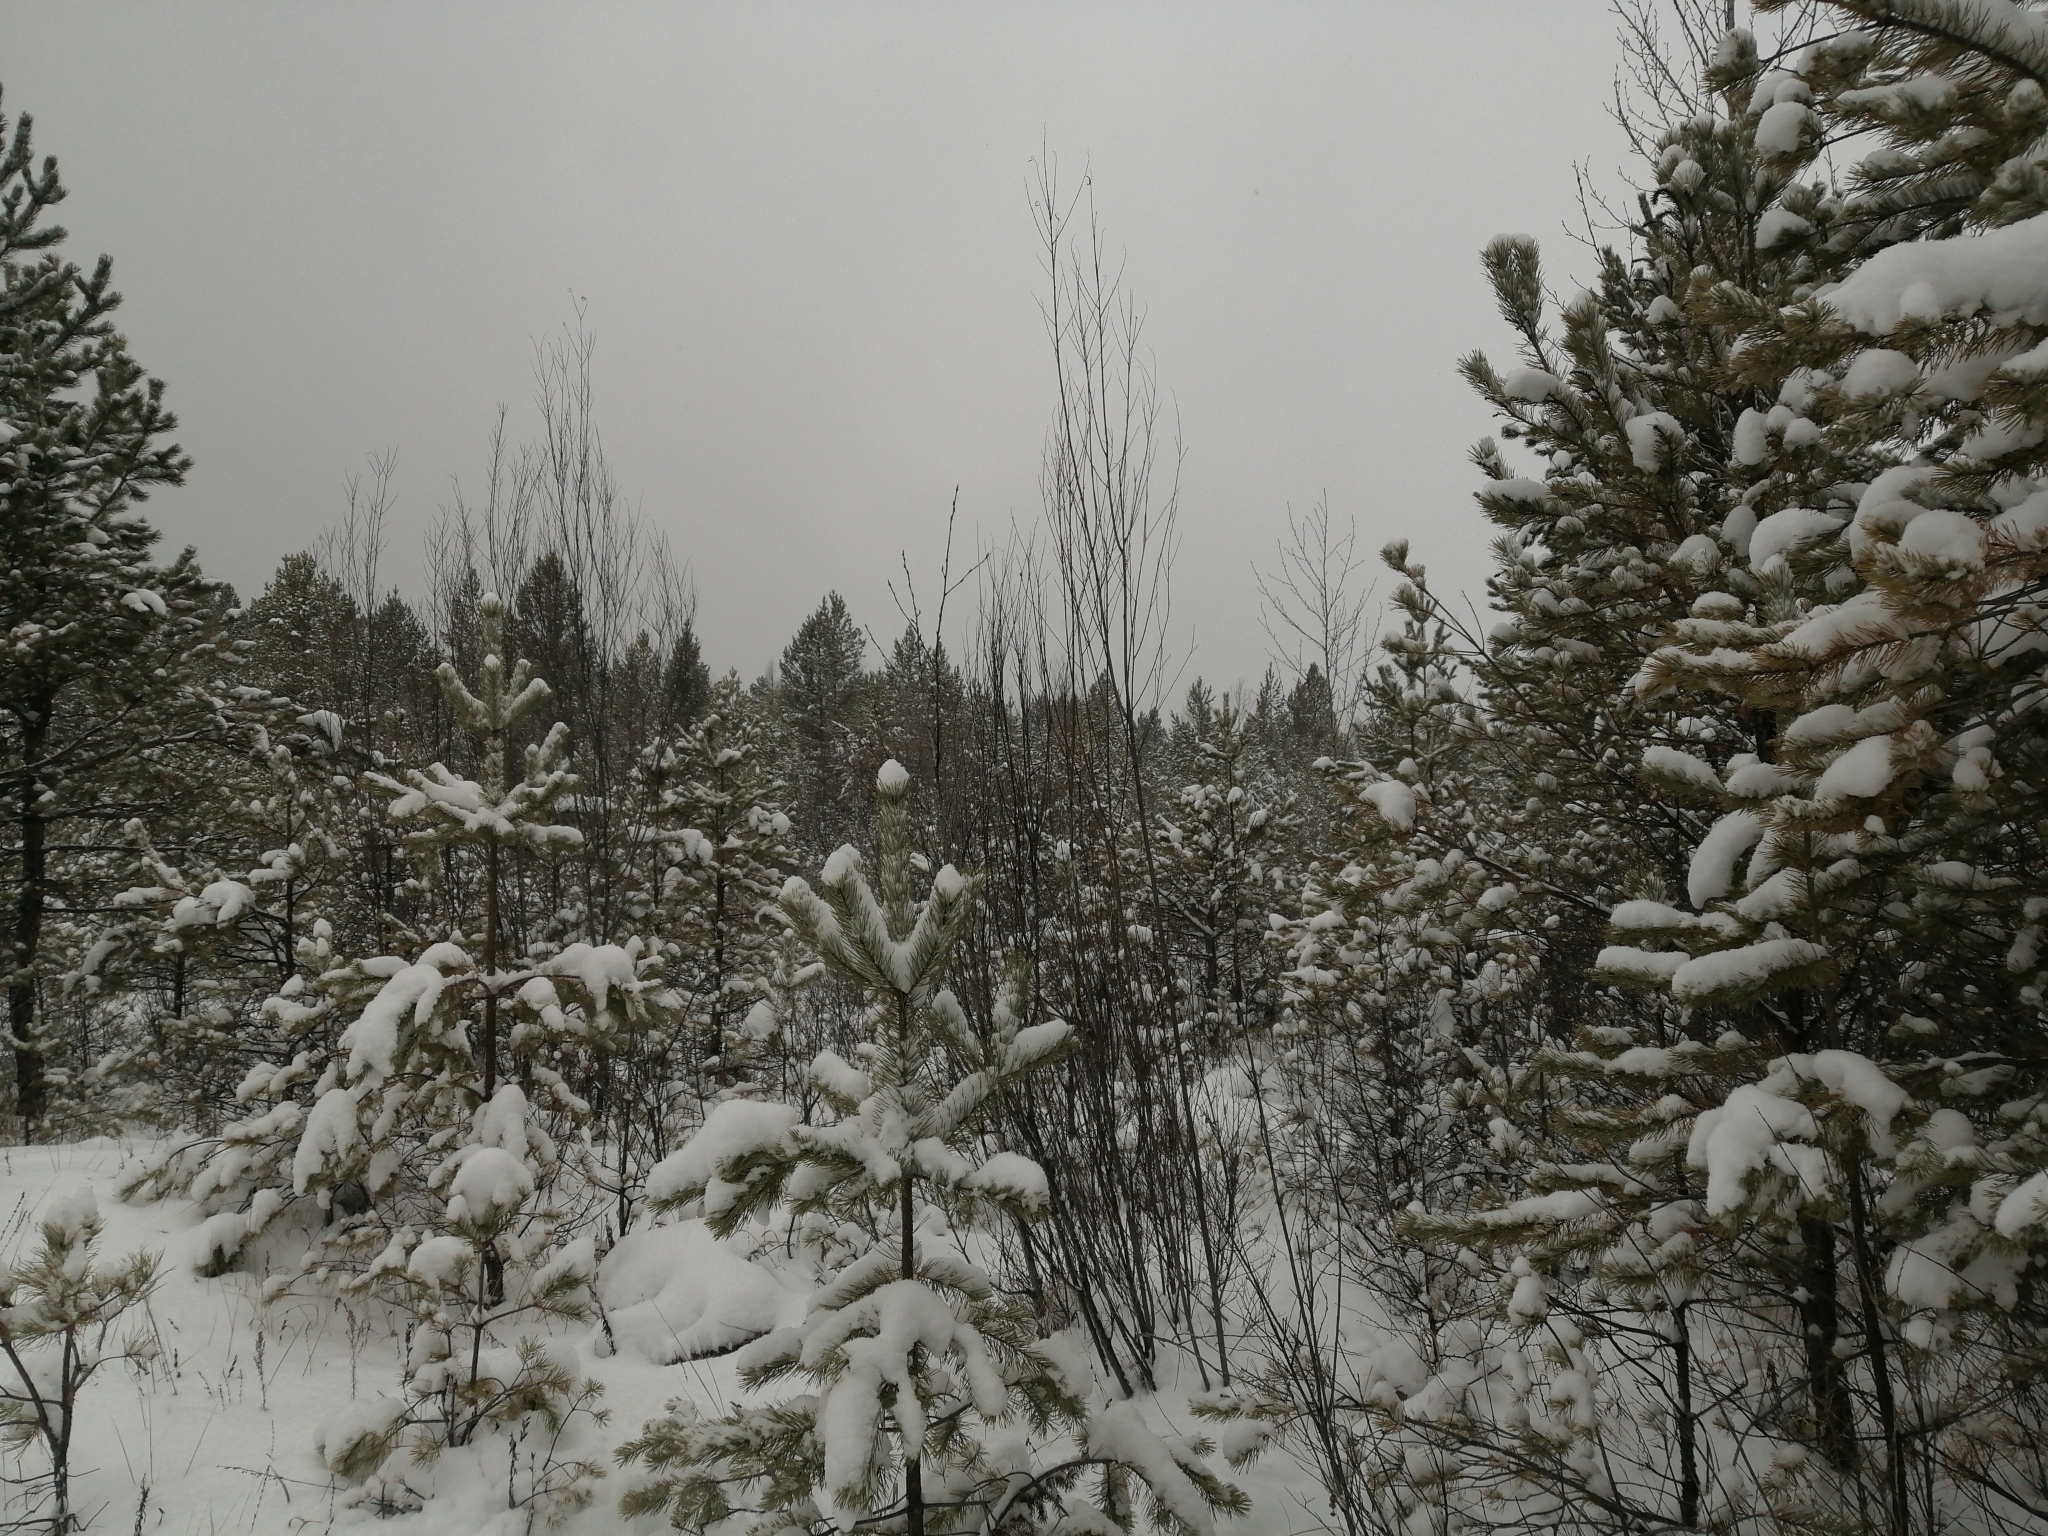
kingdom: Plantae
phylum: Tracheophyta
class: Pinopsida
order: Pinales
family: Pinaceae
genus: Pinus
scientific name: Pinus sylvestris
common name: Scots pine
